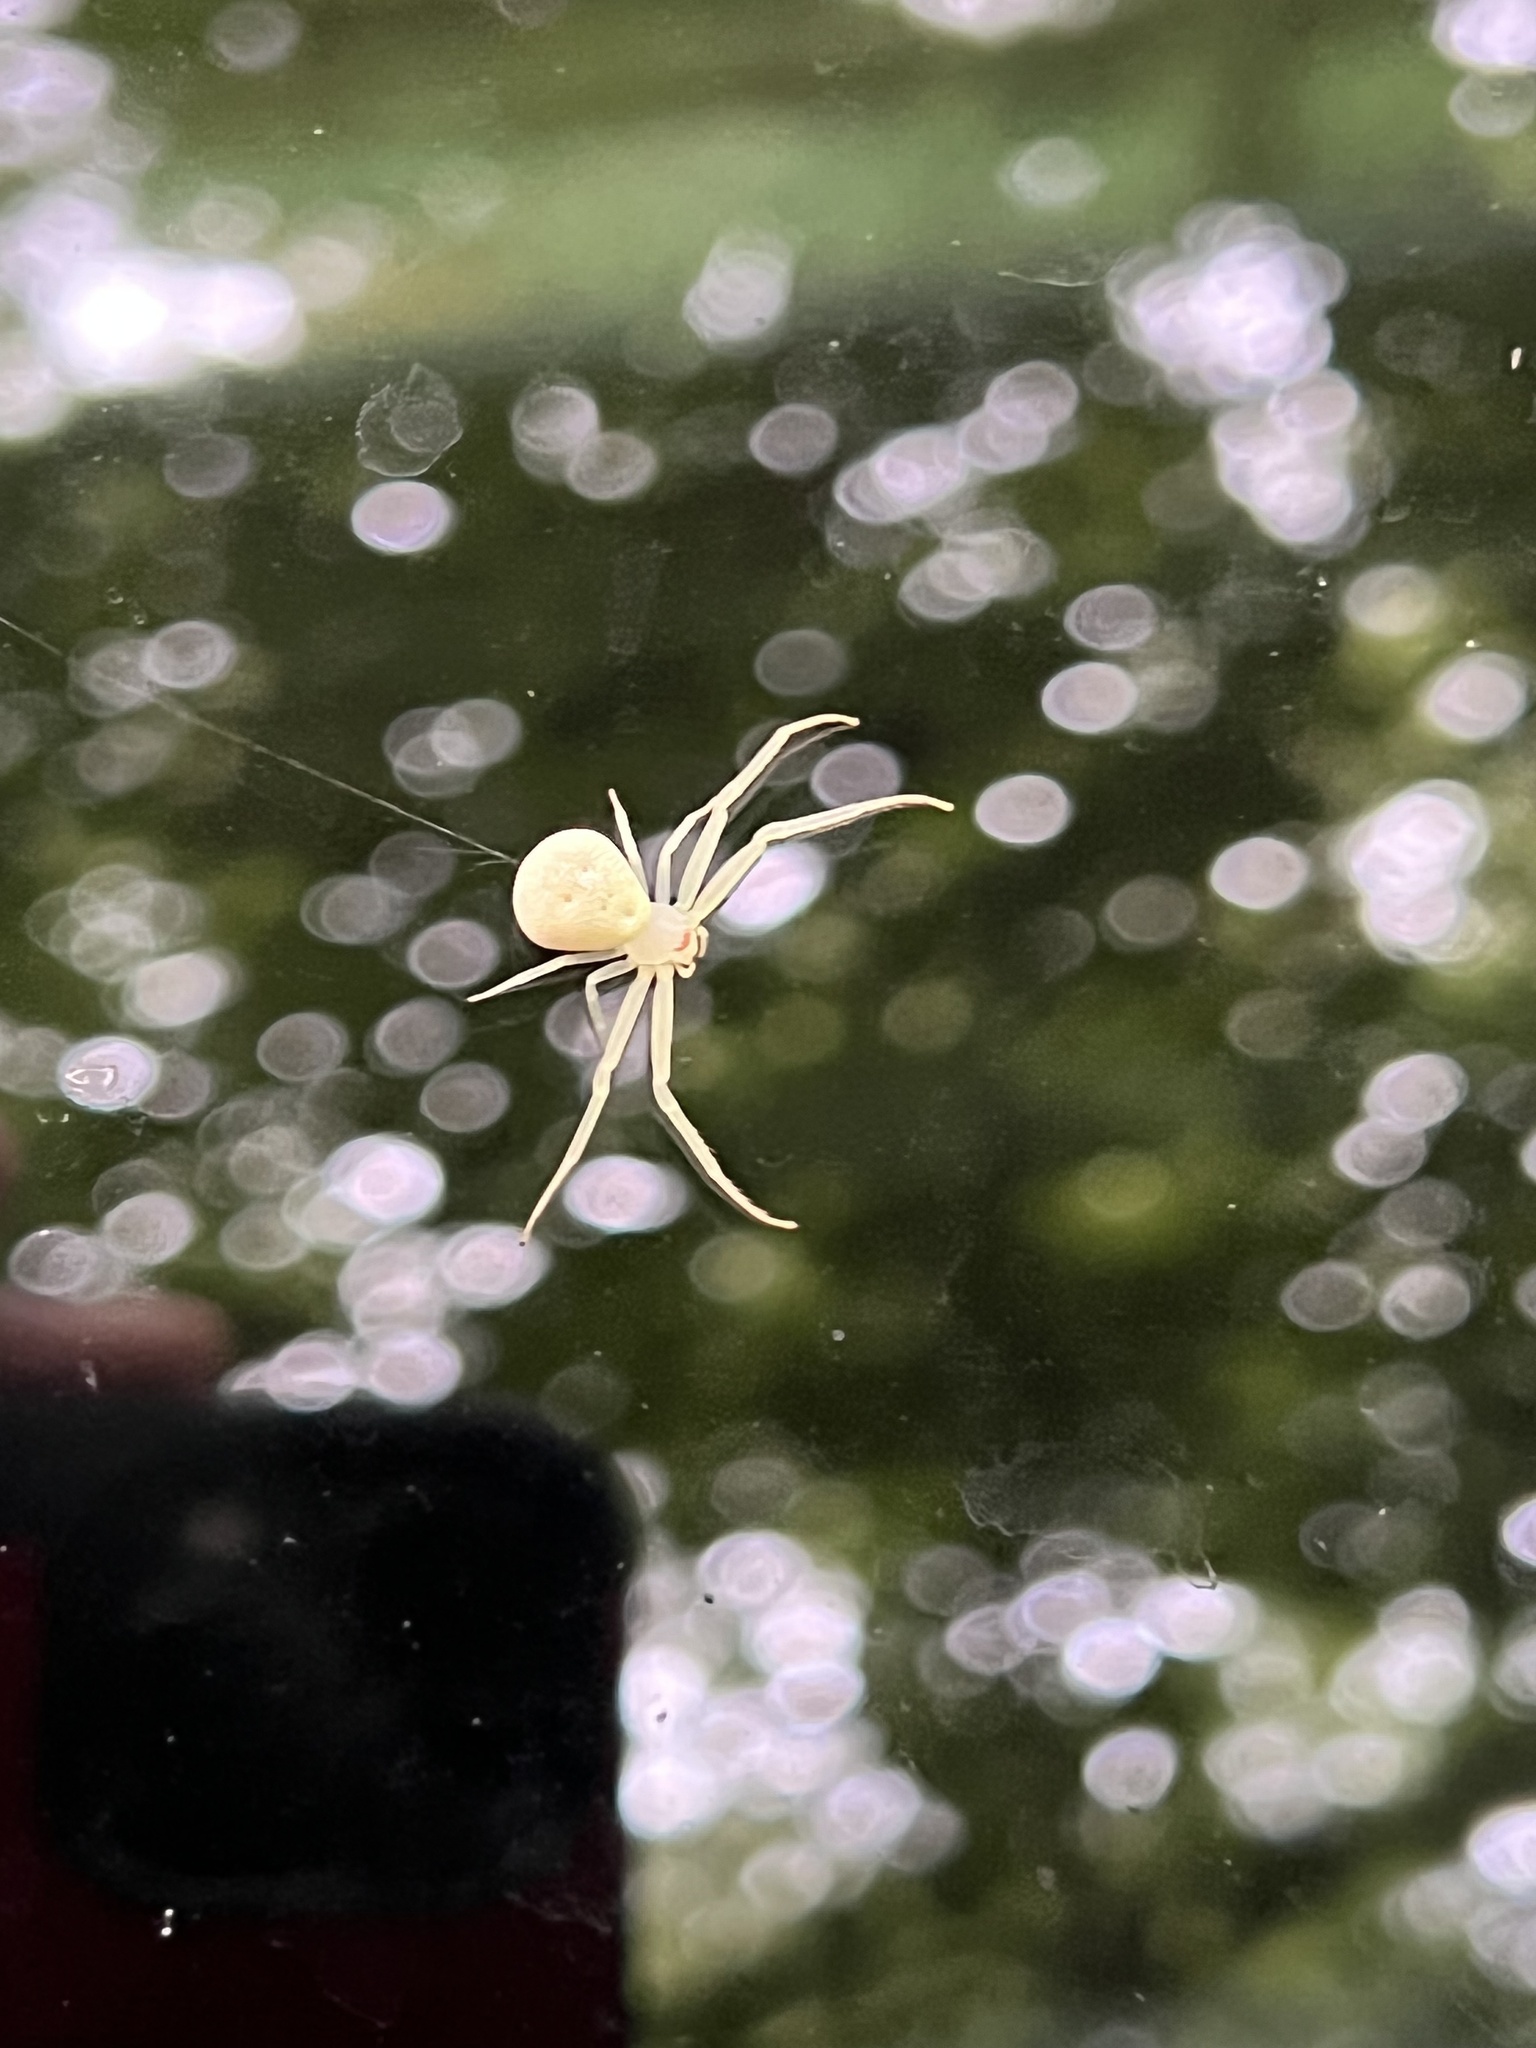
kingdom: Animalia
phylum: Arthropoda
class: Arachnida
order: Araneae
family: Thomisidae
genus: Misumessus
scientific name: Misumessus oblongus
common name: American green crab spider
